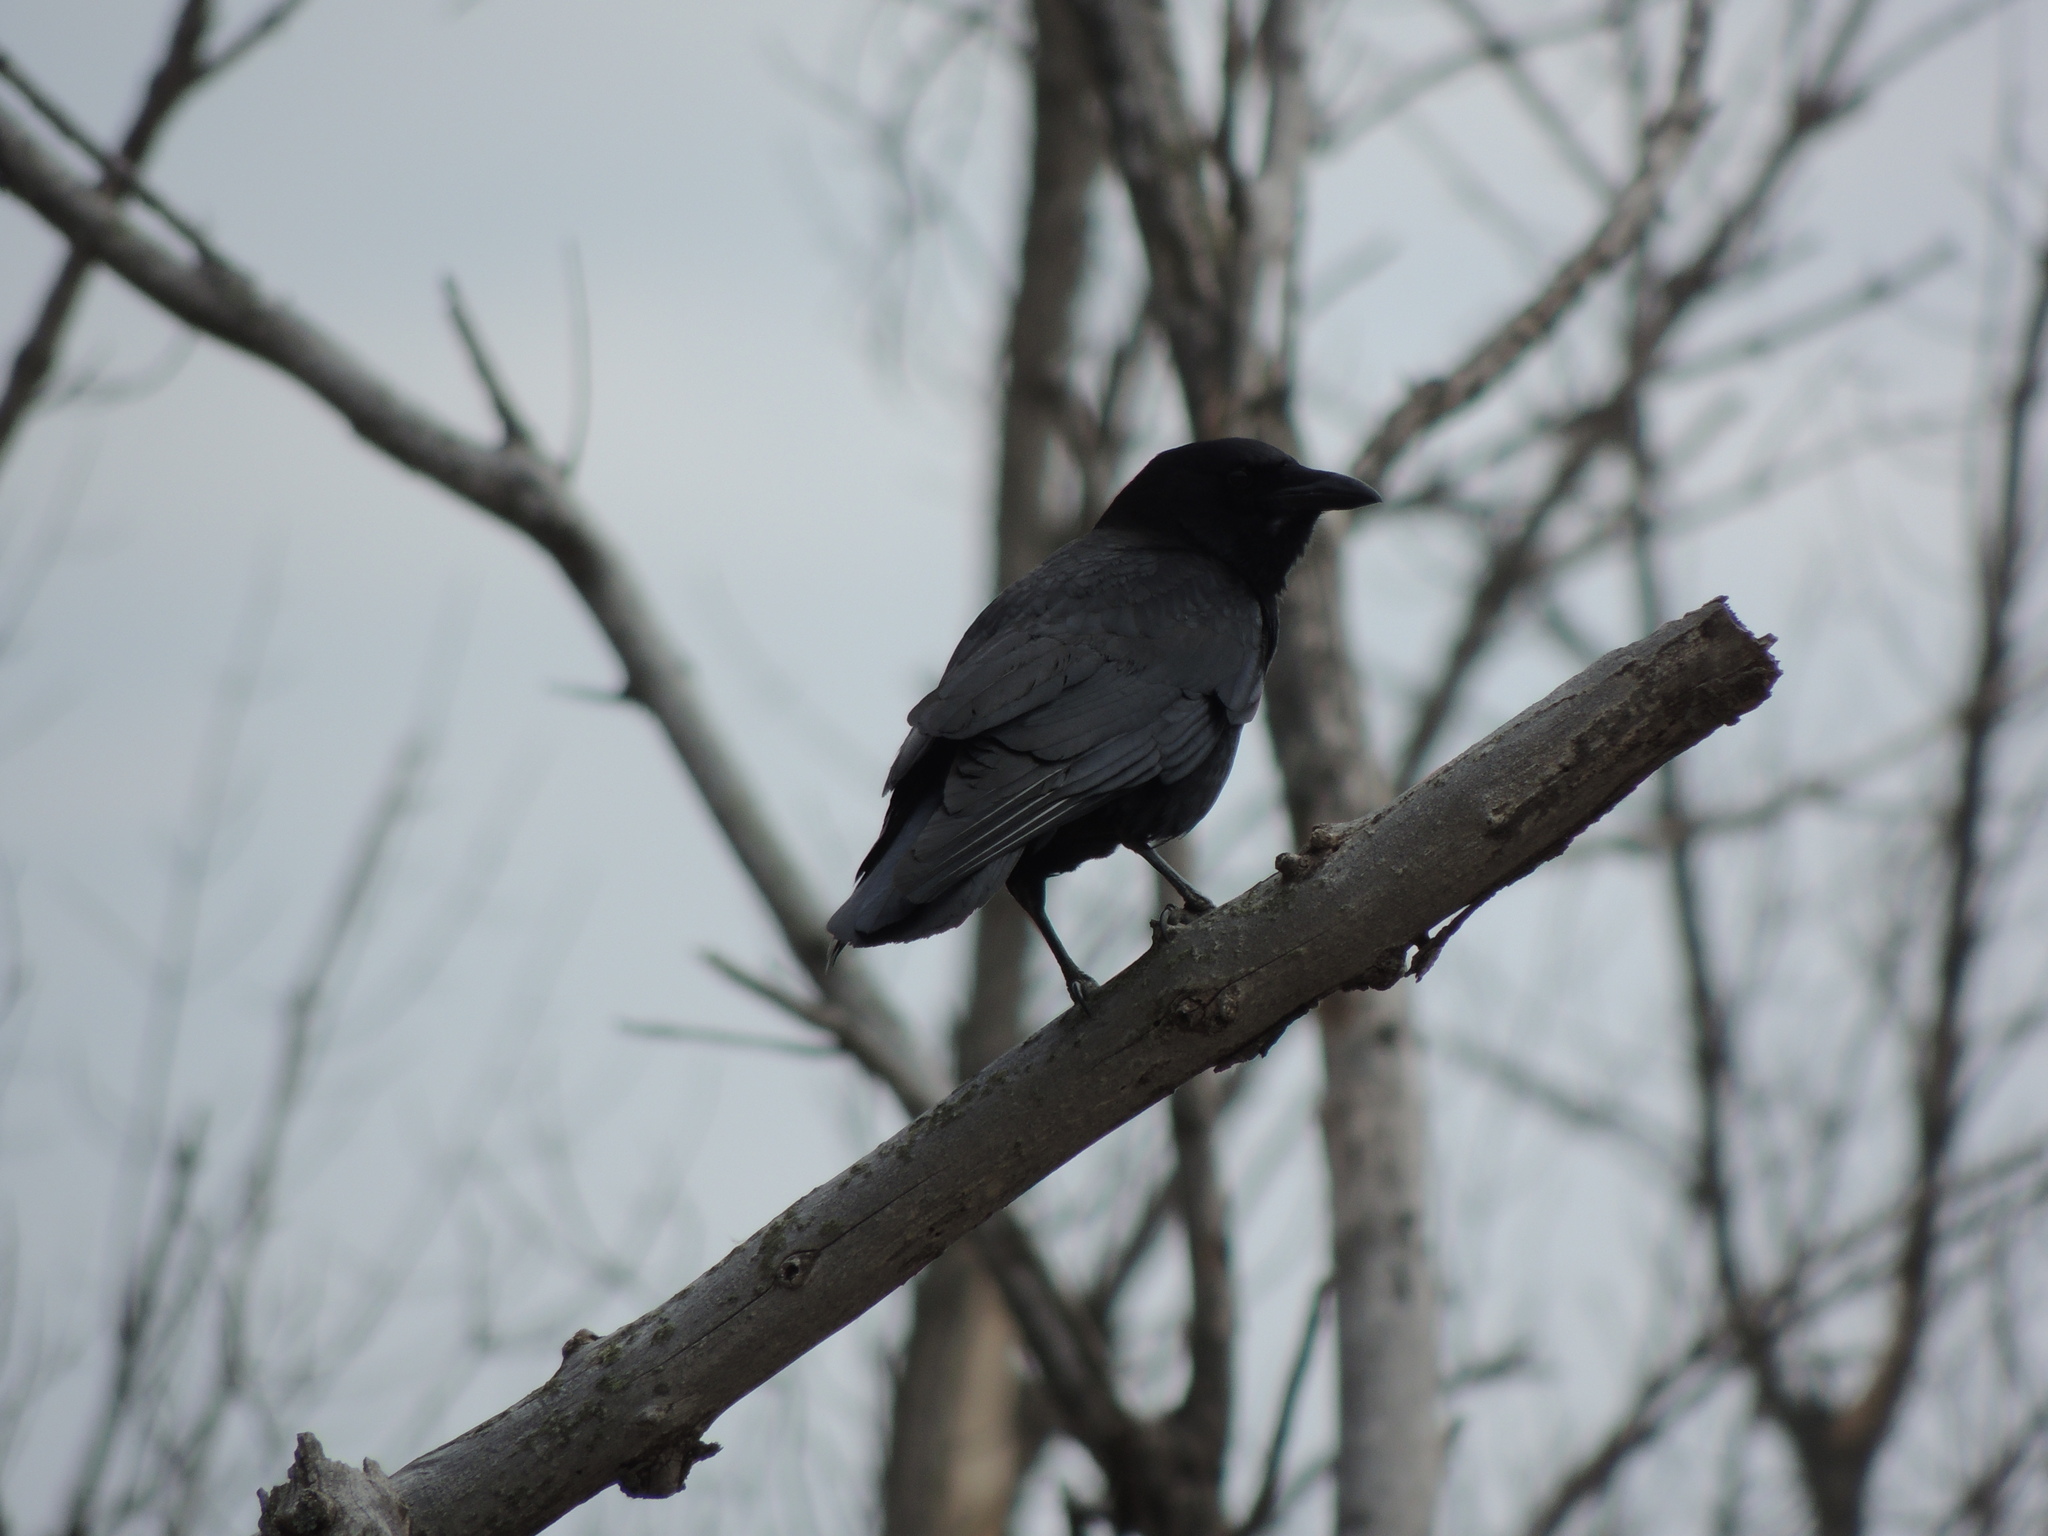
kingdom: Animalia
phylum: Chordata
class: Aves
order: Passeriformes
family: Corvidae
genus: Corvus
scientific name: Corvus brachyrhynchos
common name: American crow
